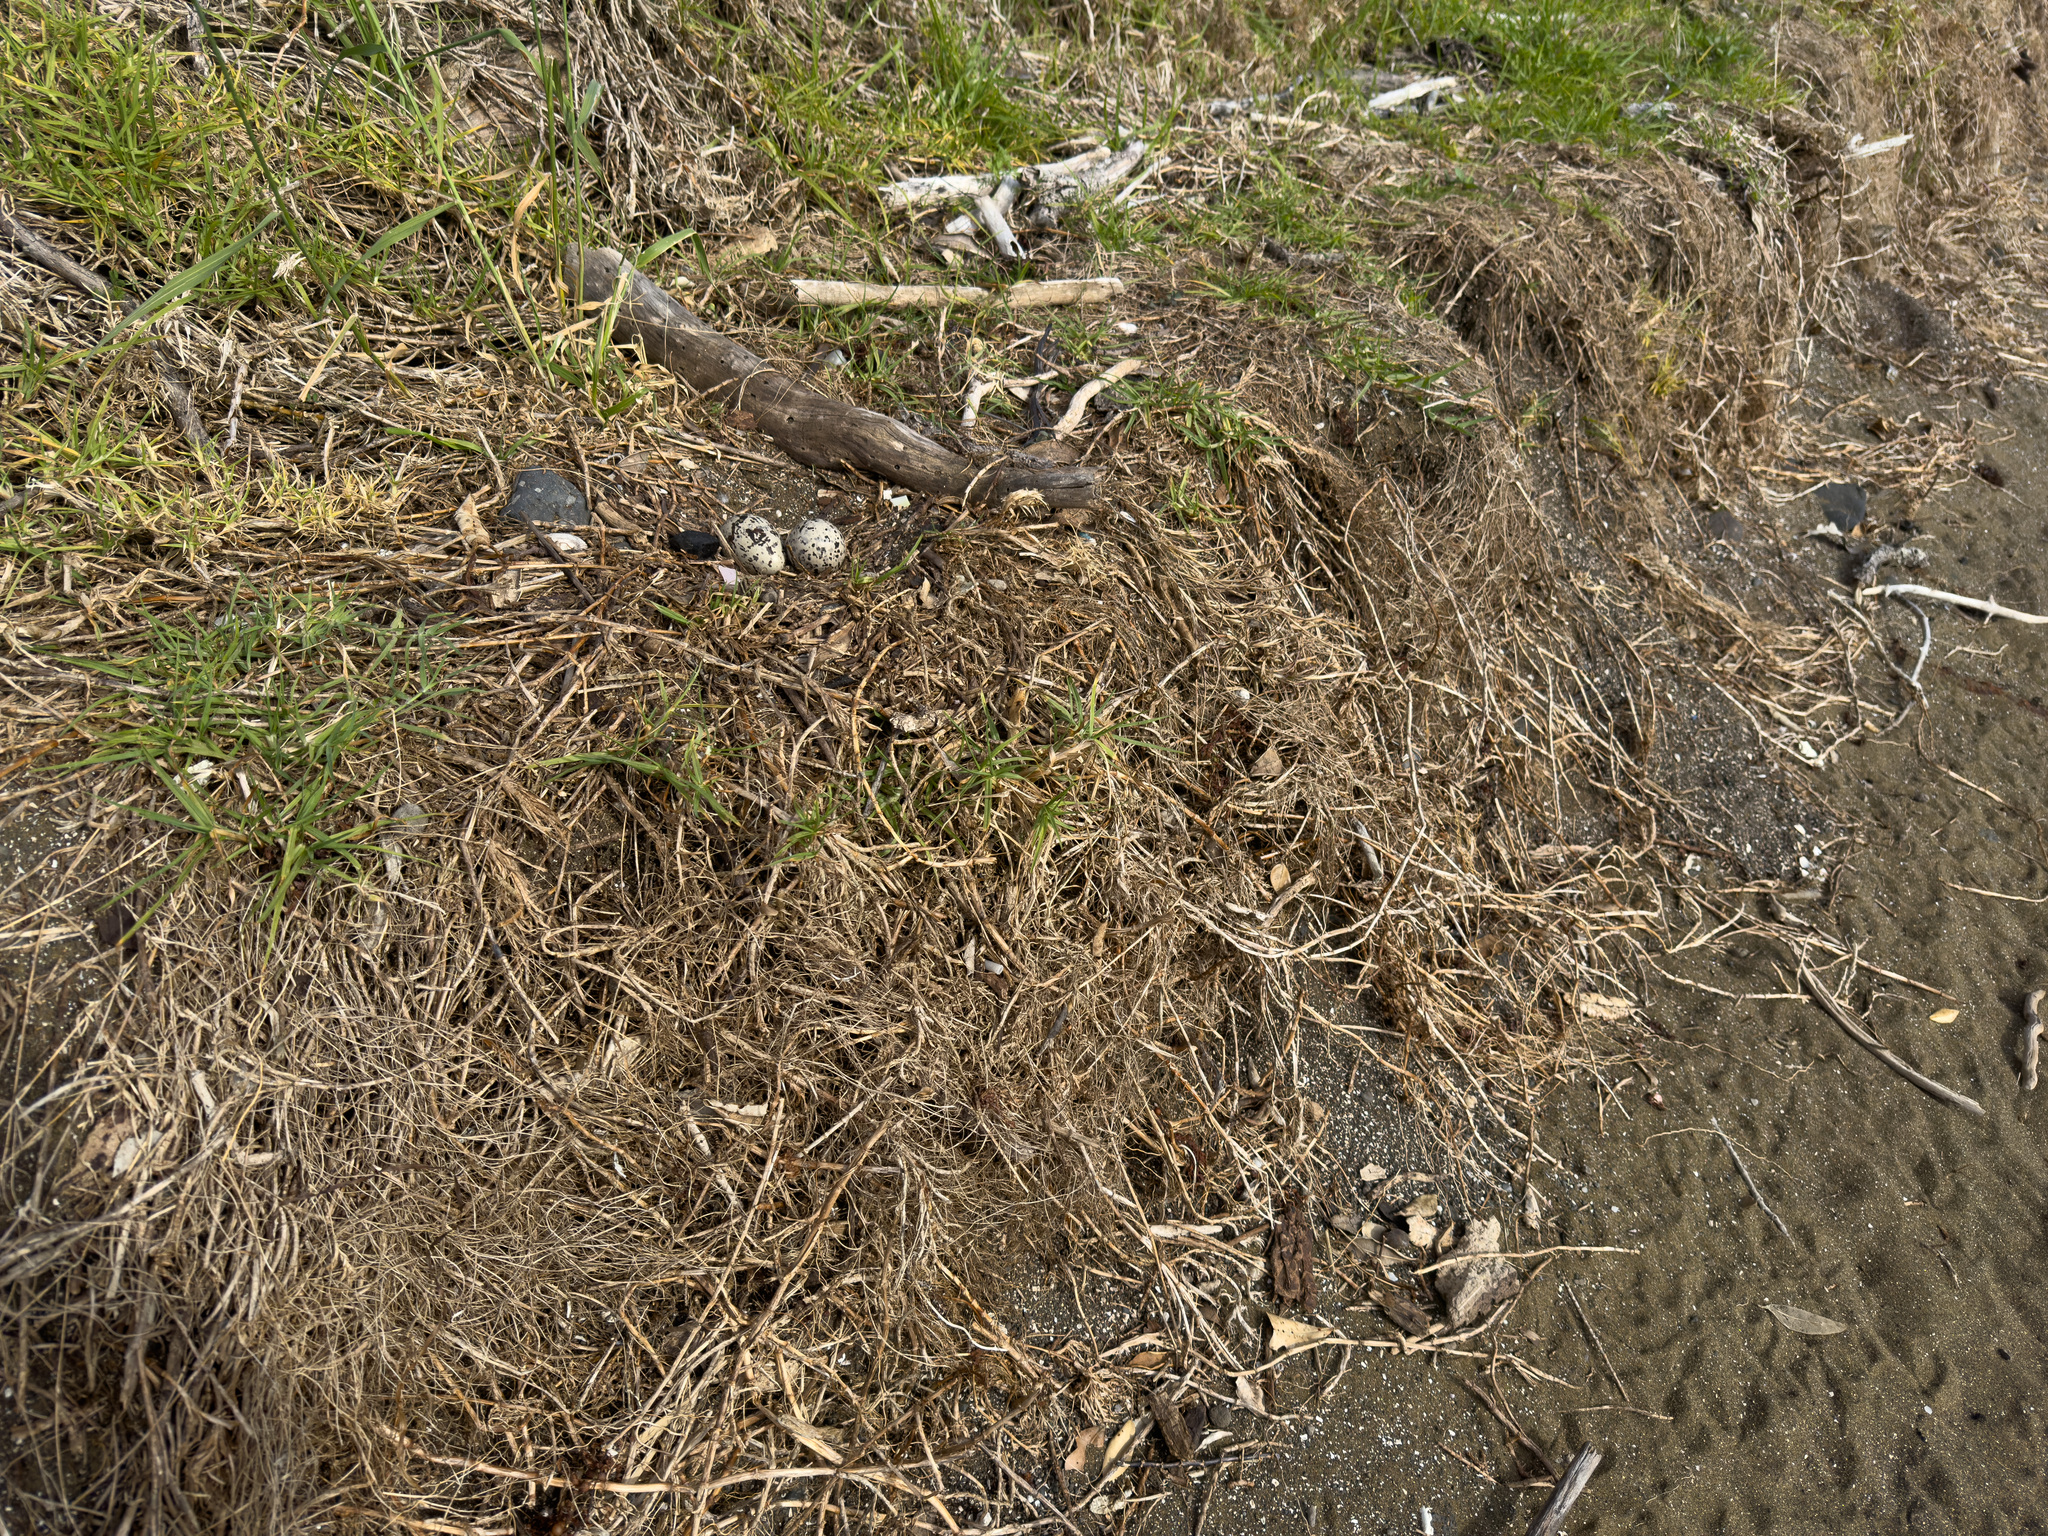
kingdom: Animalia
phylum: Chordata
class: Aves
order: Charadriiformes
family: Haematopodidae
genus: Haematopus
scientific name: Haematopus unicolor
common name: Variable oystercatcher
